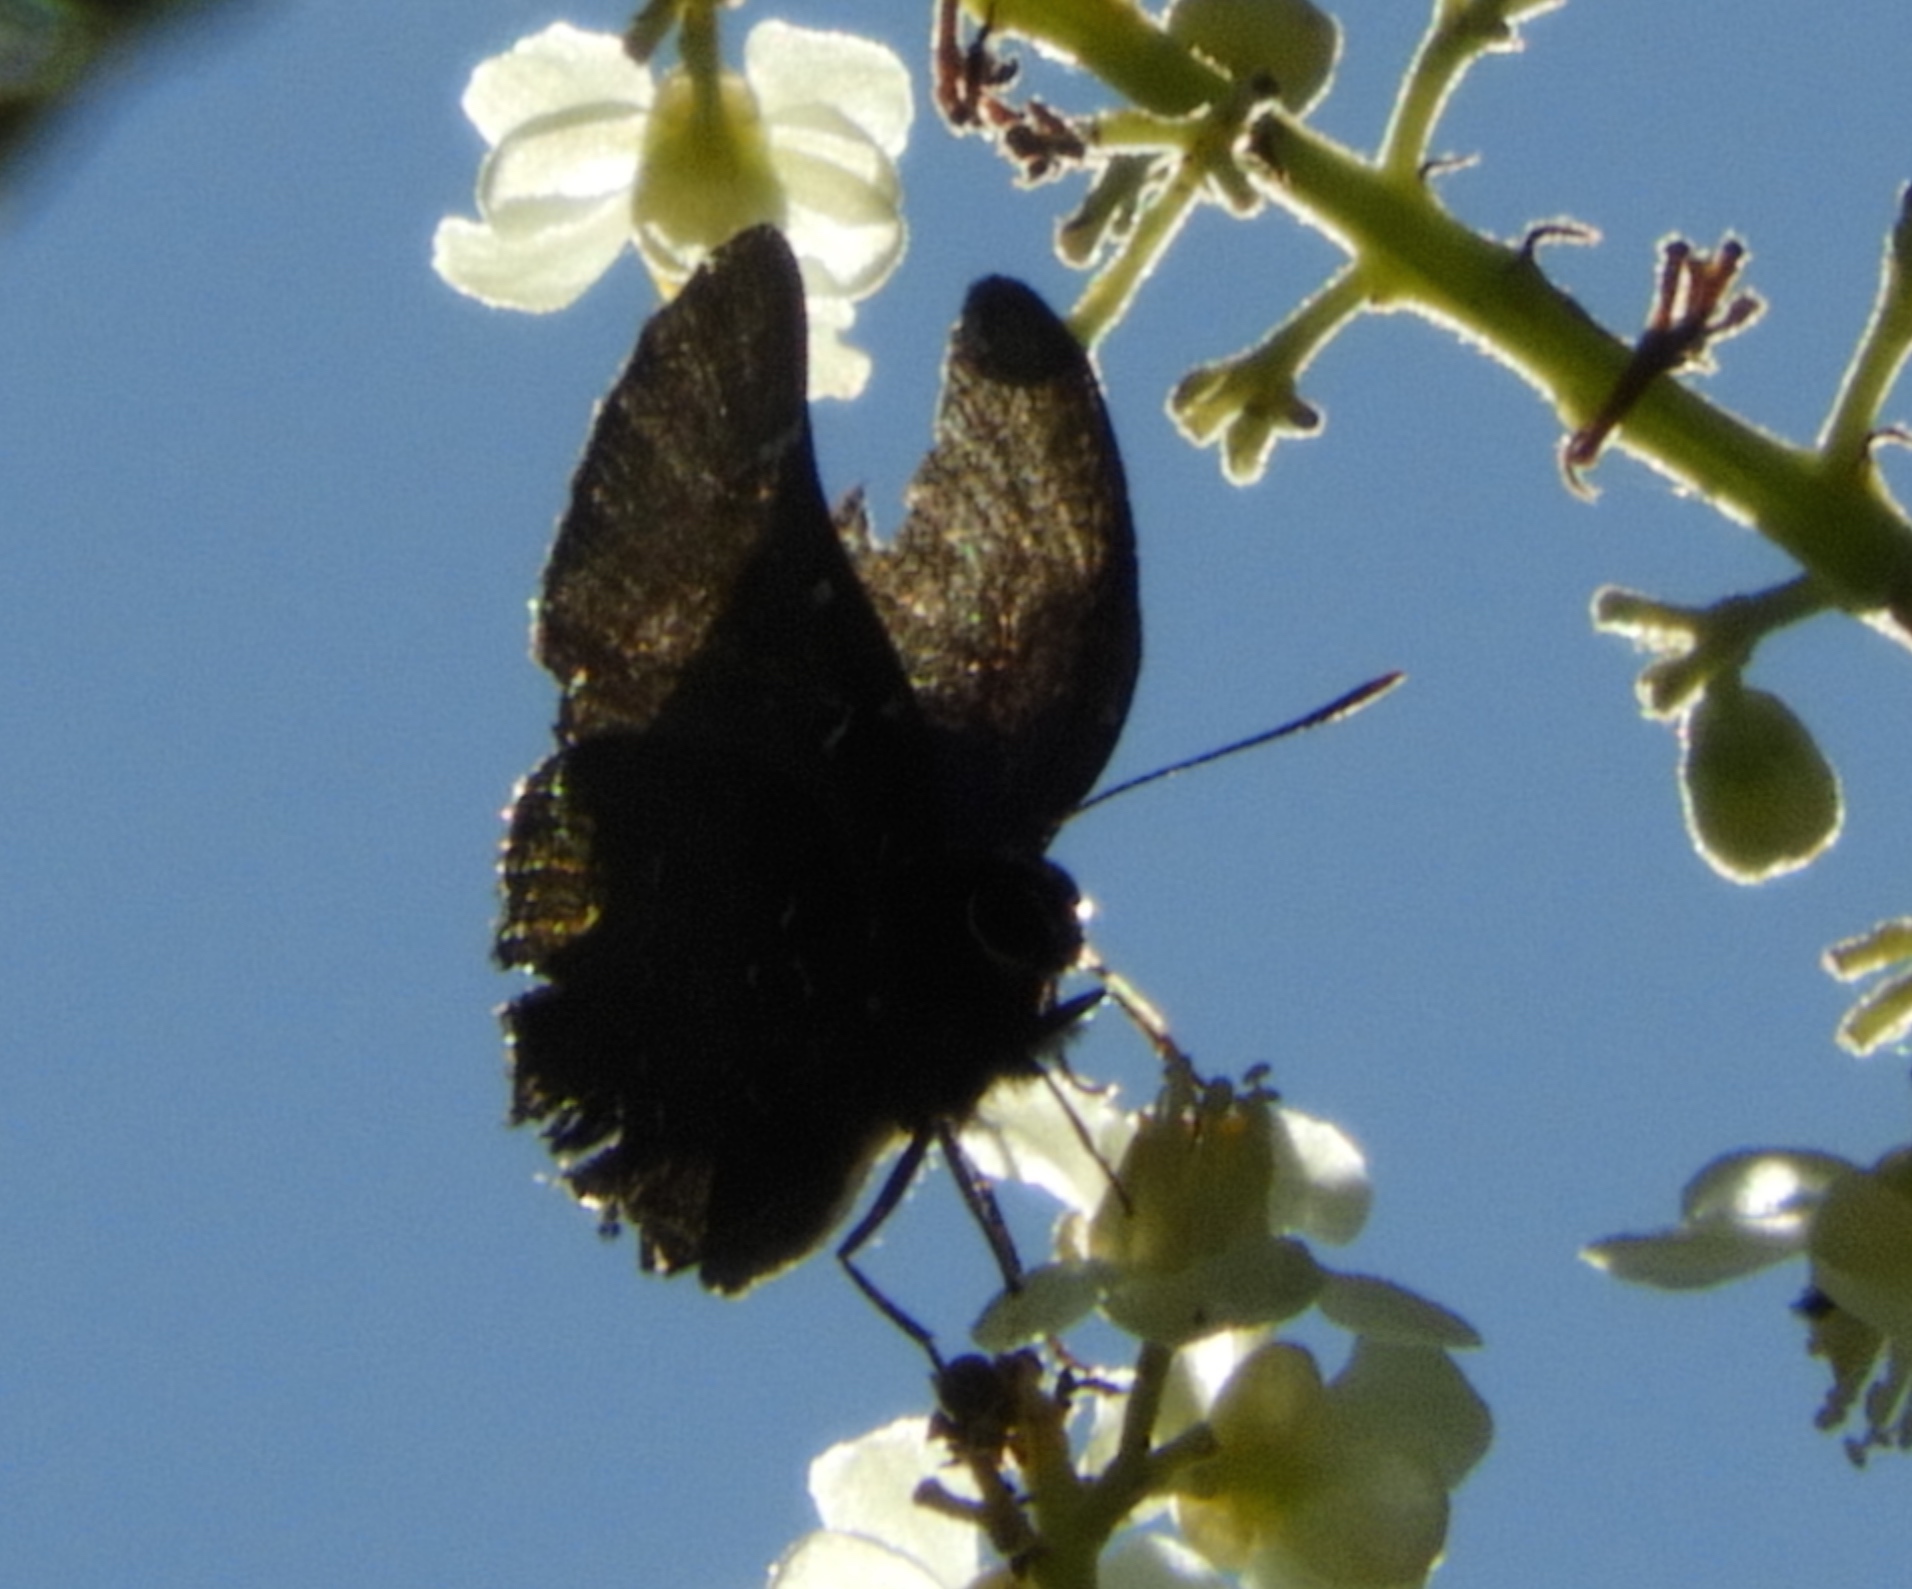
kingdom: Animalia
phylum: Arthropoda
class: Insecta
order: Lepidoptera
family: Lycaenidae
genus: Atlides
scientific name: Atlides Brangas neora
